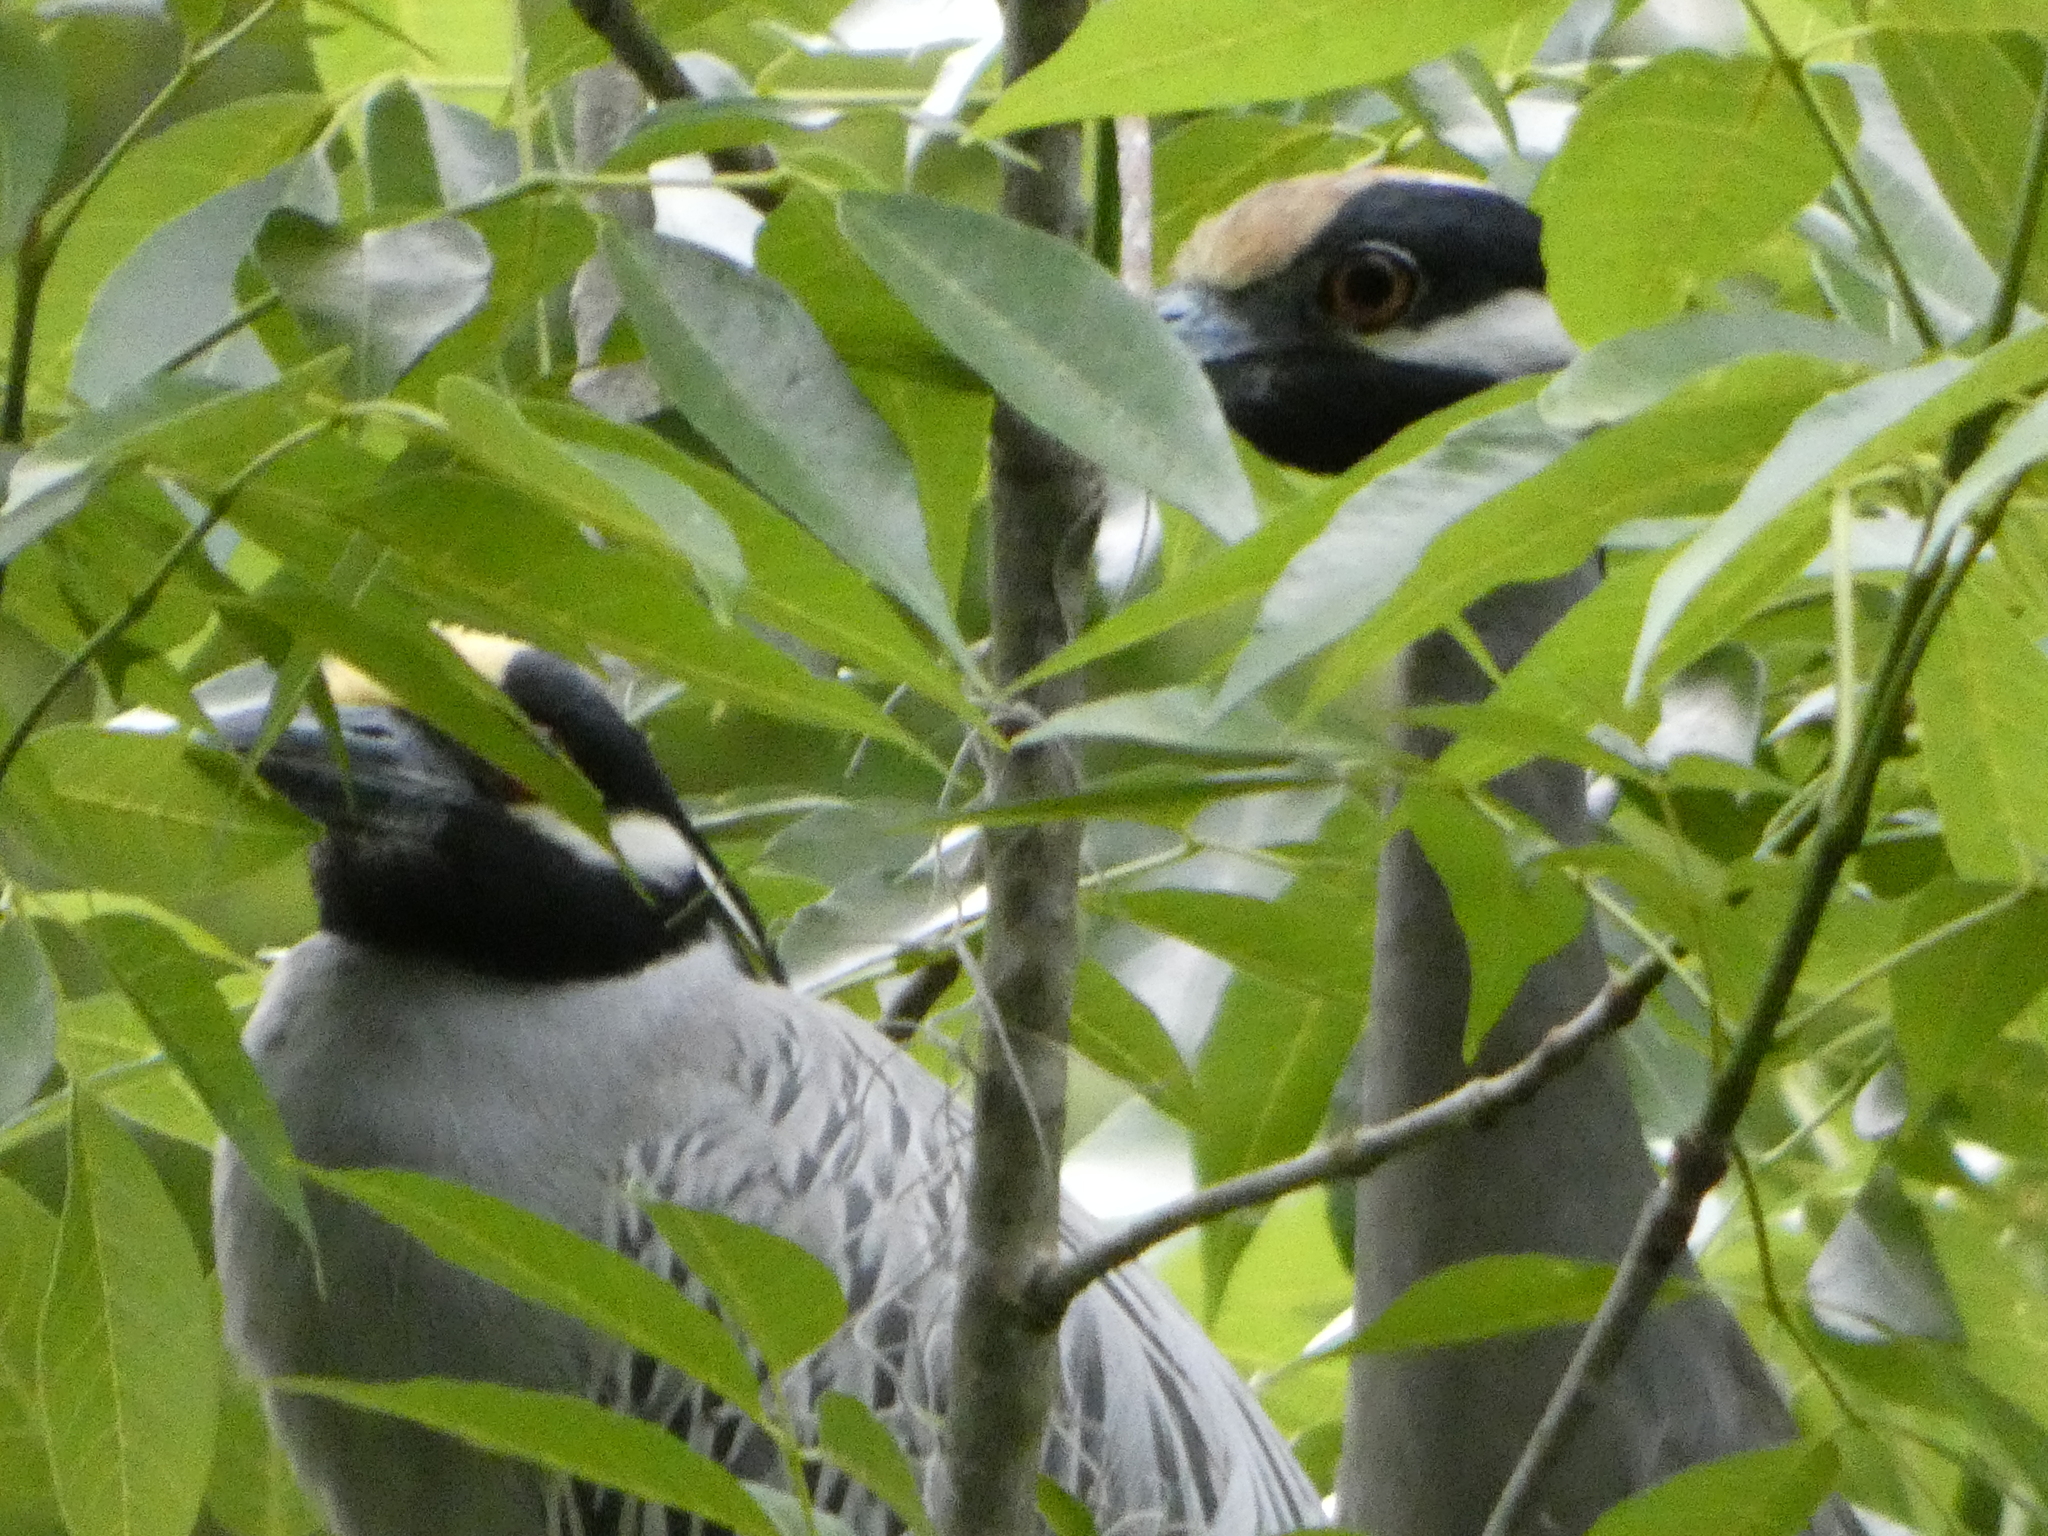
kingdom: Animalia
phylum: Chordata
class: Aves
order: Pelecaniformes
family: Ardeidae
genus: Nyctanassa
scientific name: Nyctanassa violacea
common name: Yellow-crowned night heron
